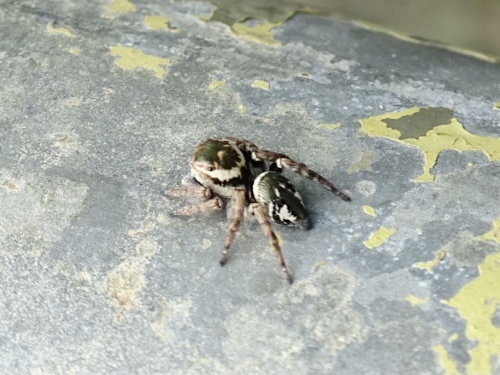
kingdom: Animalia
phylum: Arthropoda
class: Arachnida
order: Araneae
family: Salticidae
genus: Carrhotus
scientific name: Carrhotus viduus
